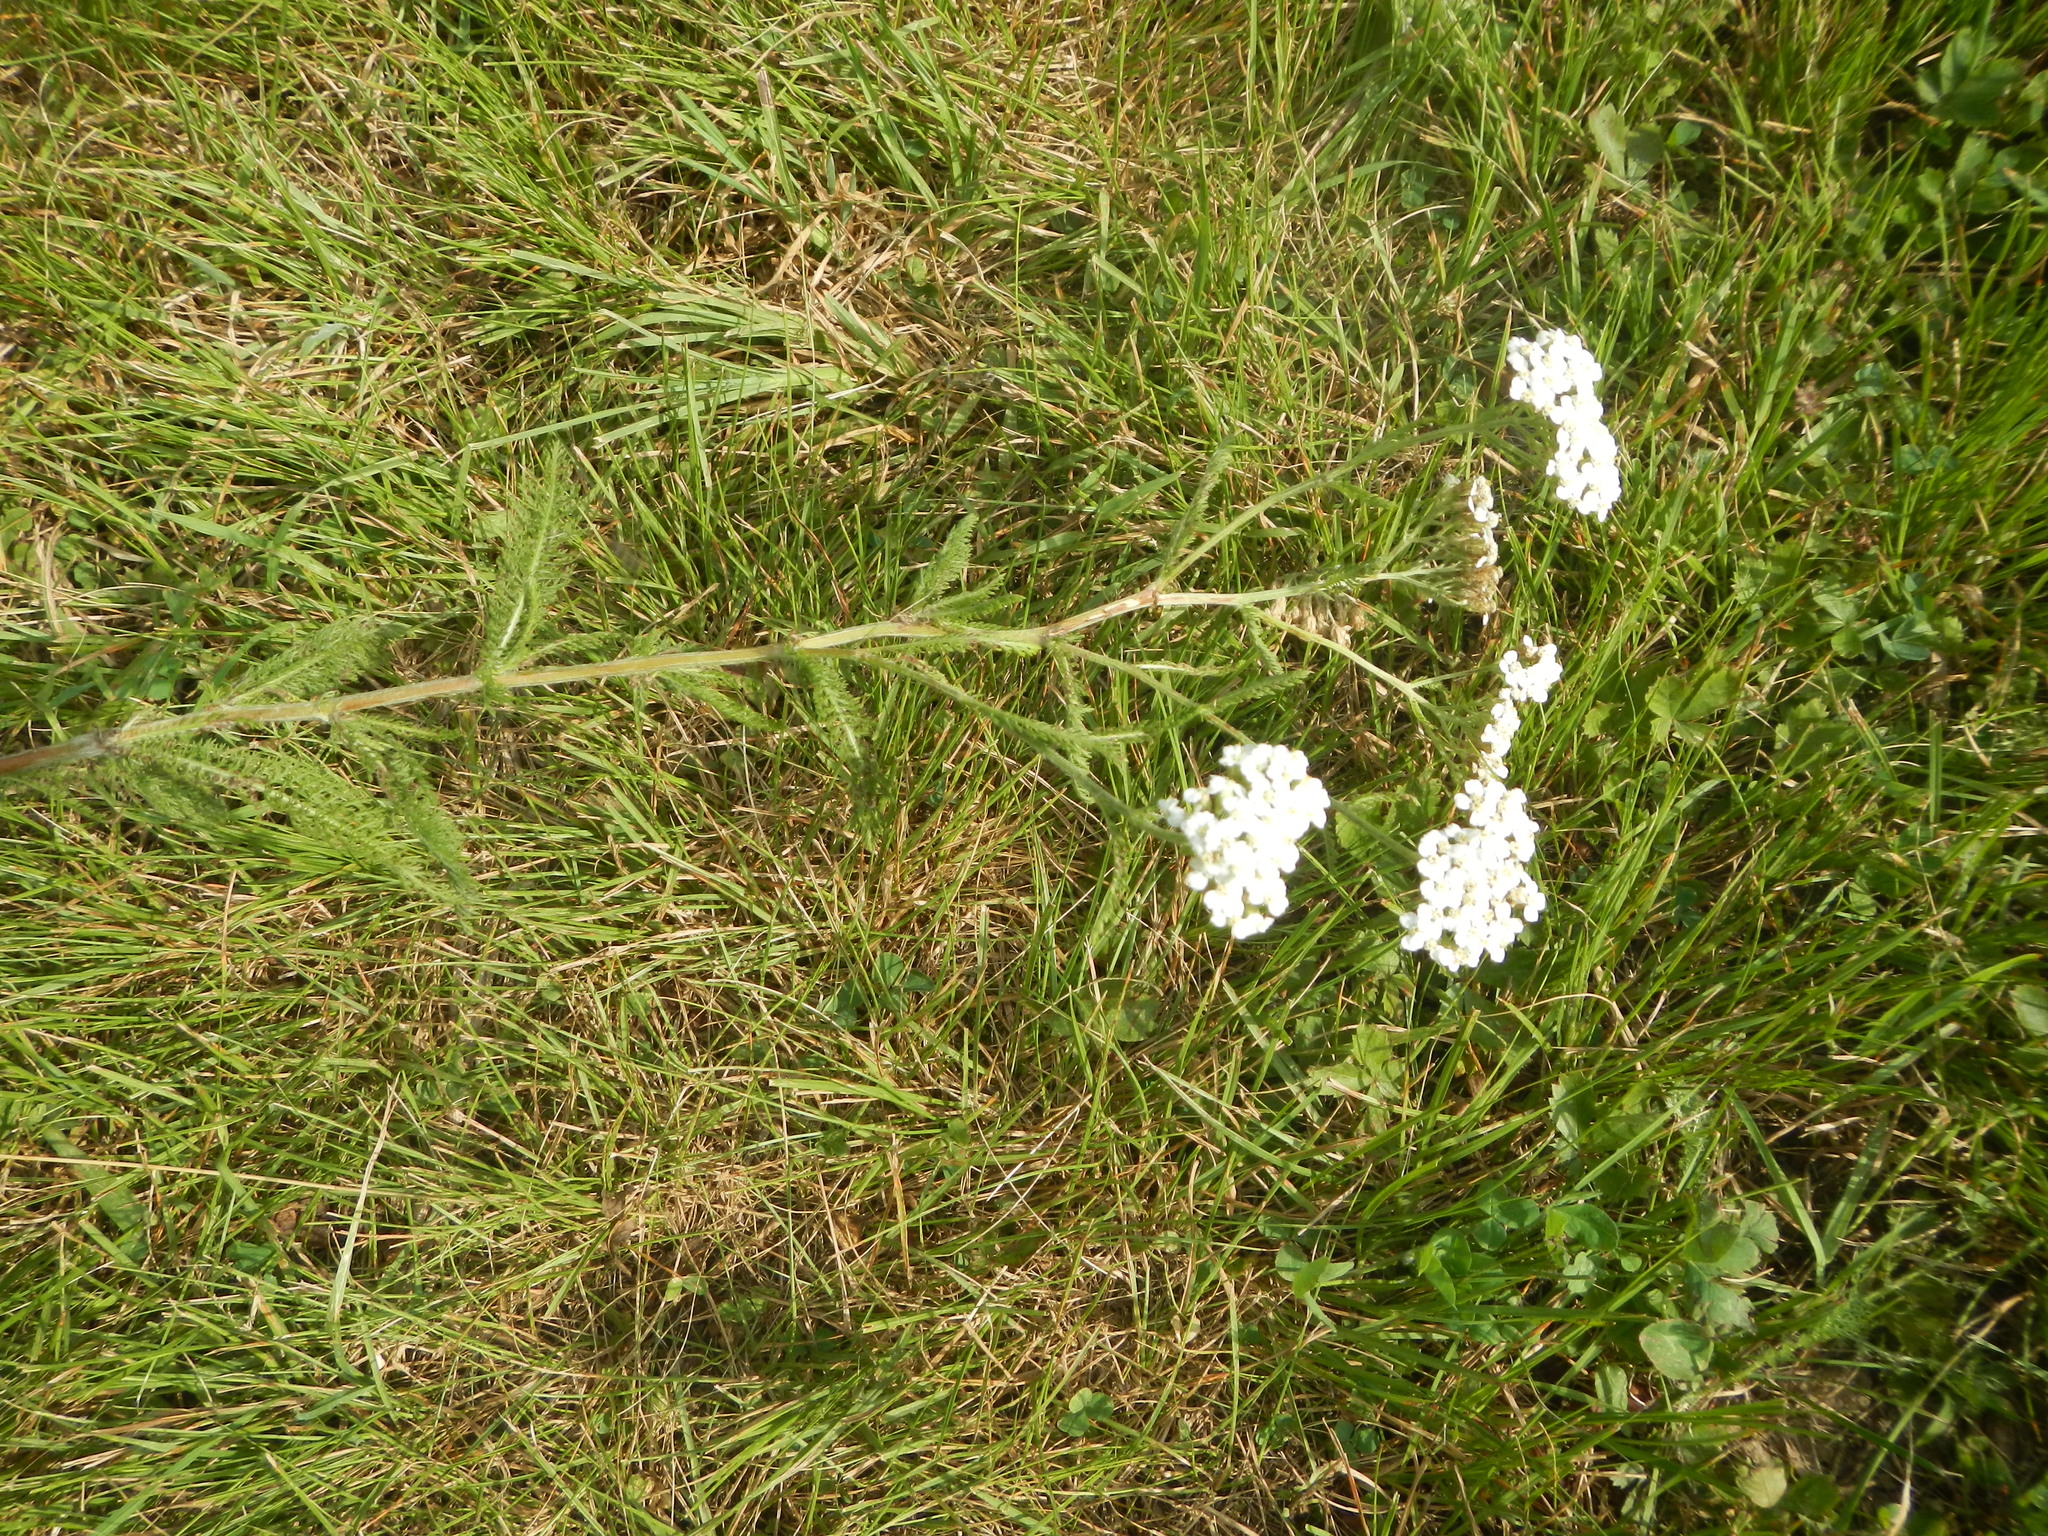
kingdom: Plantae
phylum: Tracheophyta
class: Magnoliopsida
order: Asterales
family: Asteraceae
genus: Achillea
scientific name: Achillea millefolium
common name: Yarrow
